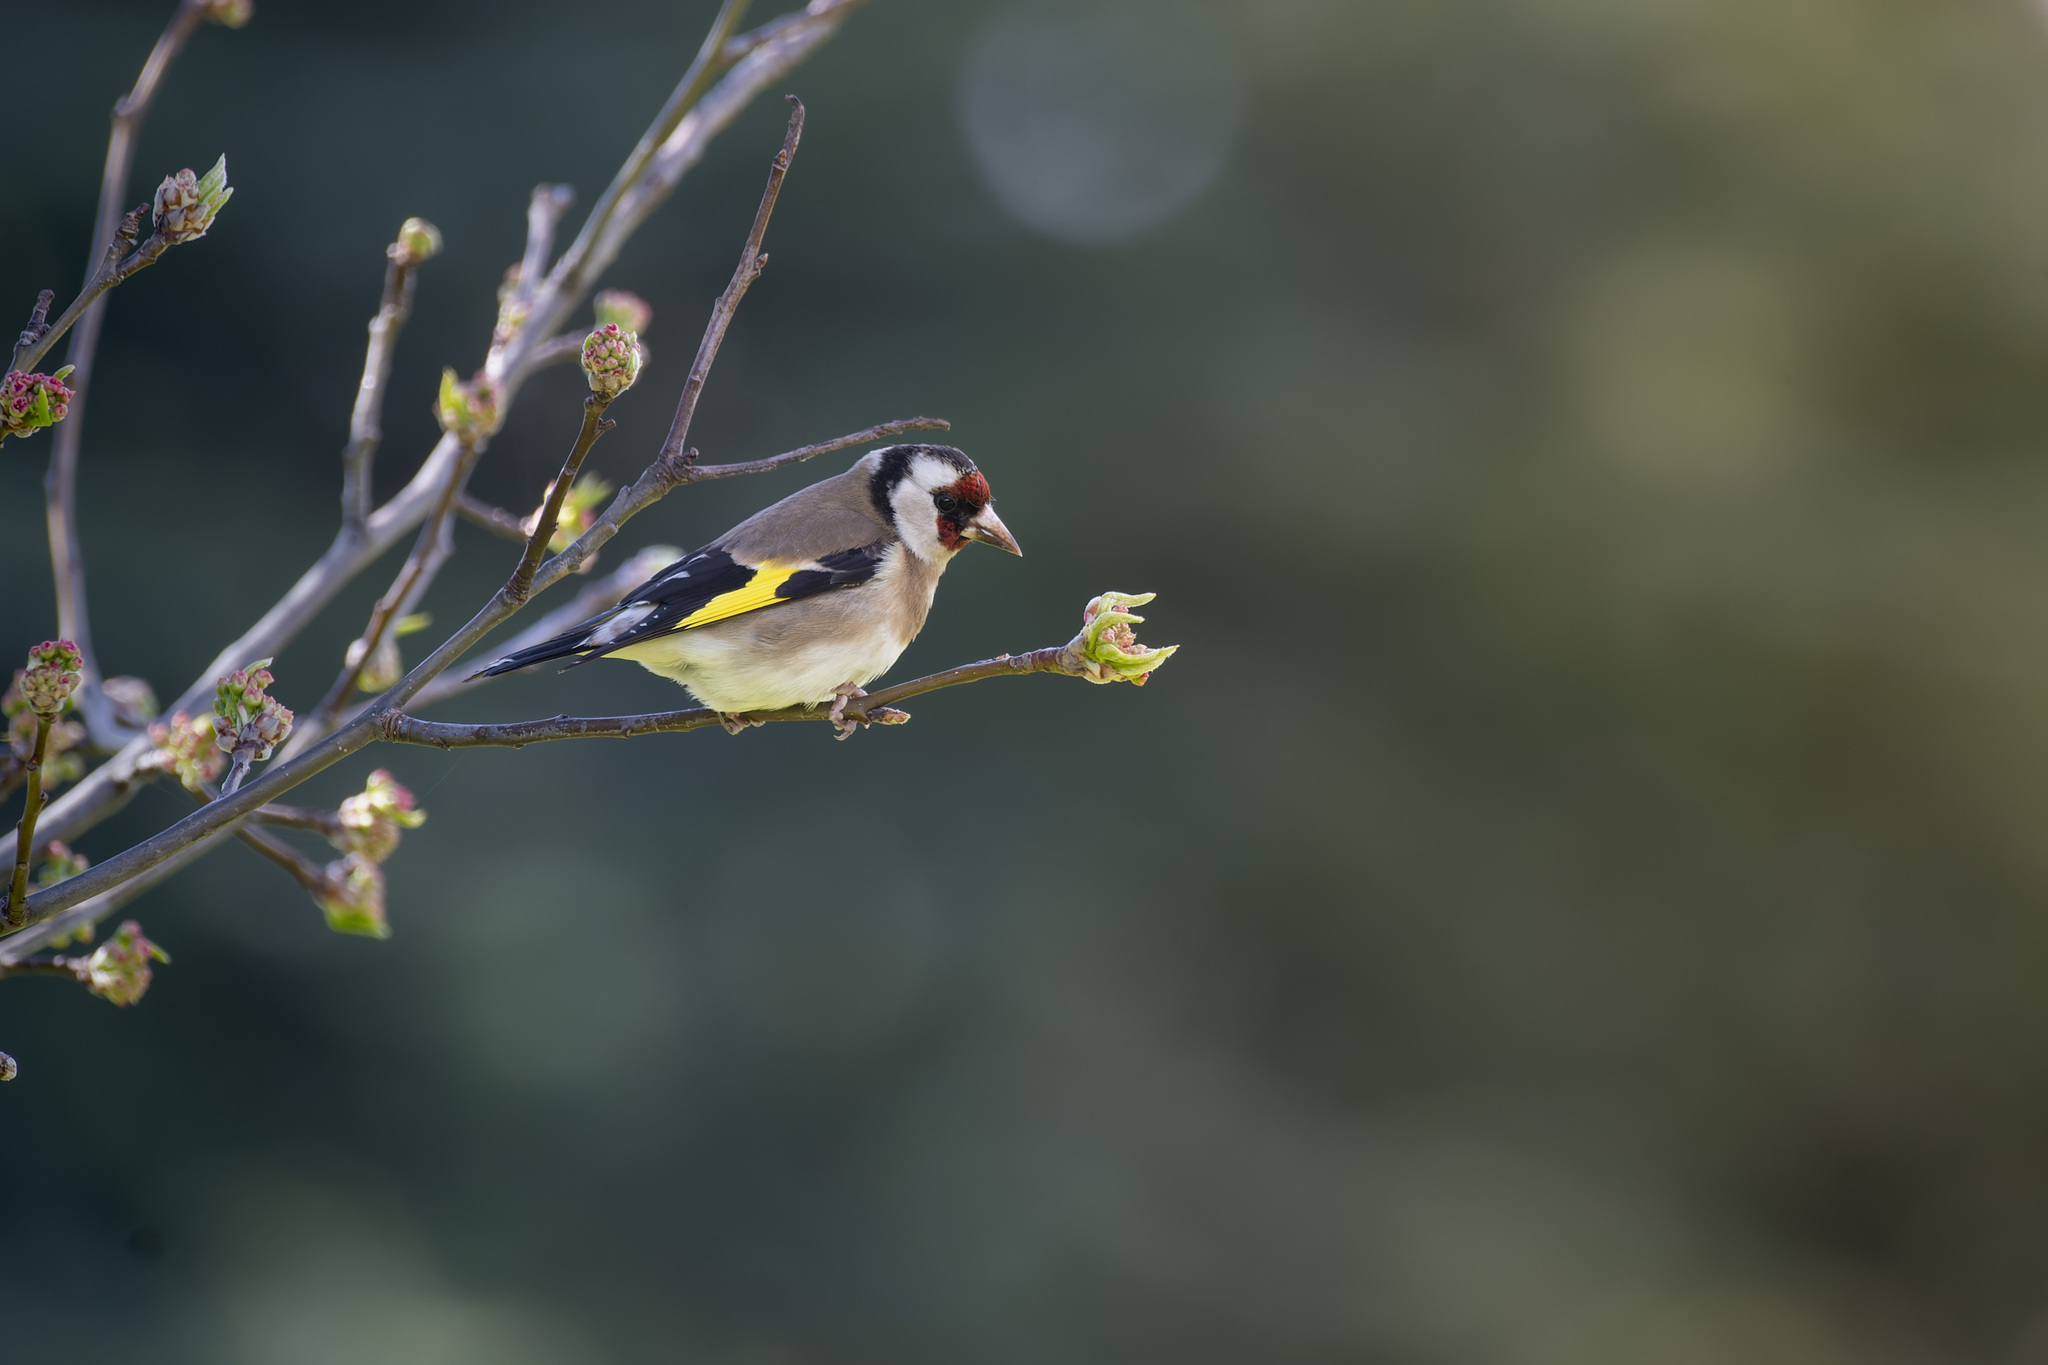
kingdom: Animalia
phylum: Chordata
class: Aves
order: Passeriformes
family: Fringillidae
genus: Carduelis
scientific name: Carduelis carduelis
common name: European goldfinch
